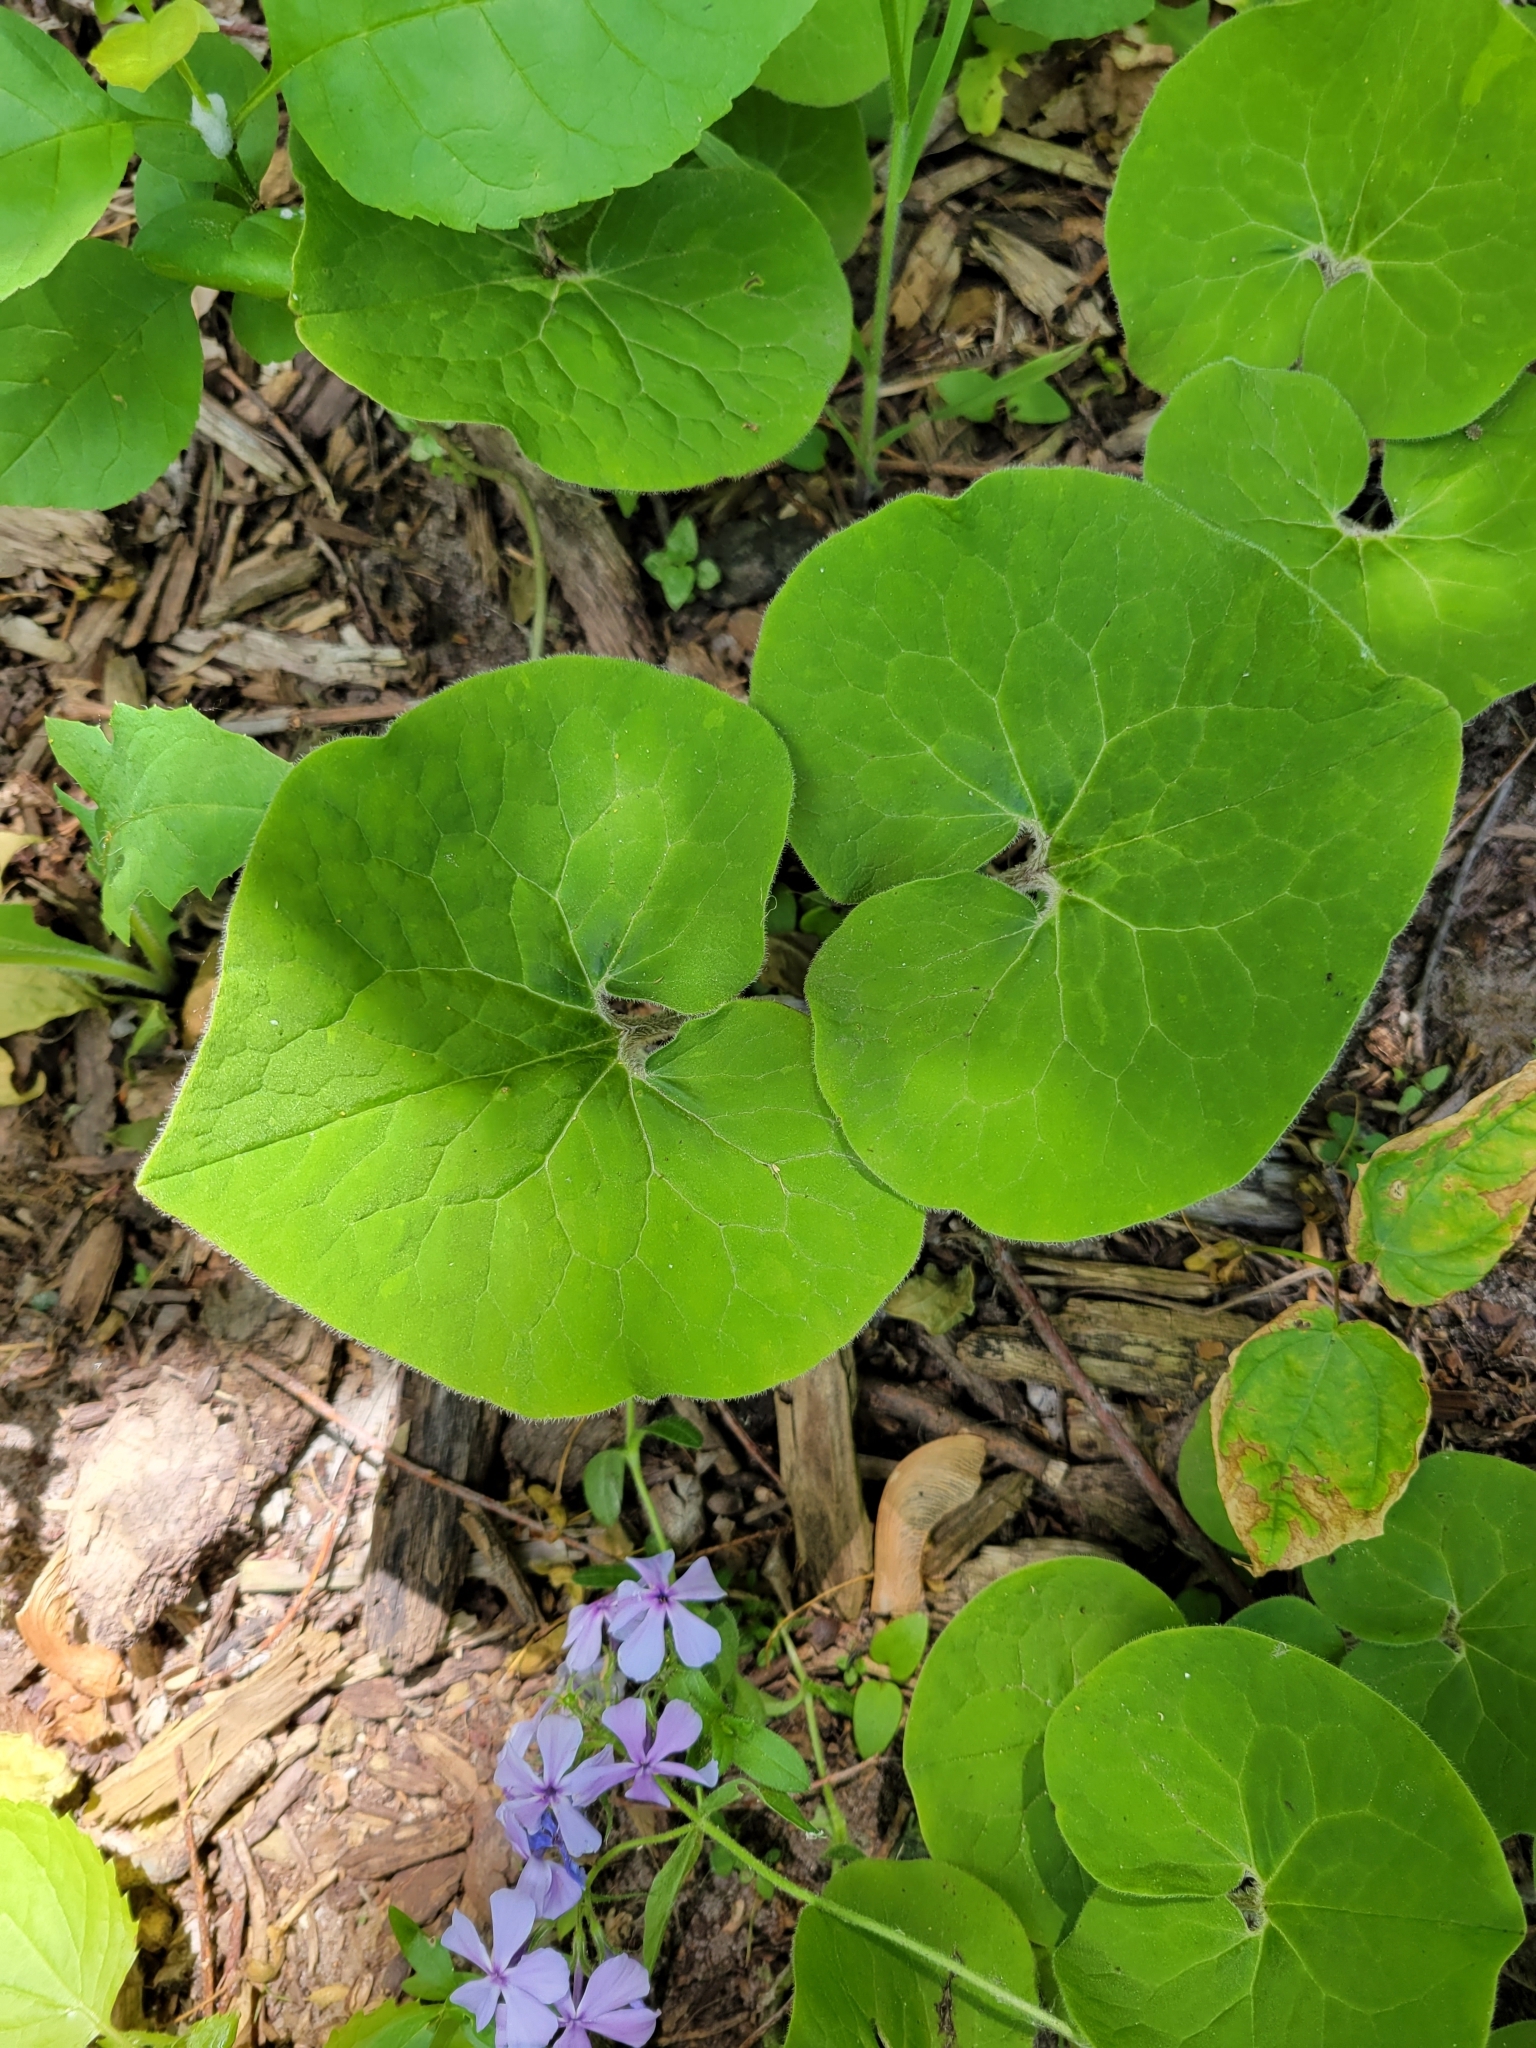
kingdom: Plantae
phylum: Tracheophyta
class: Magnoliopsida
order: Piperales
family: Aristolochiaceae
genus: Asarum
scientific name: Asarum canadense
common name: Wild ginger
